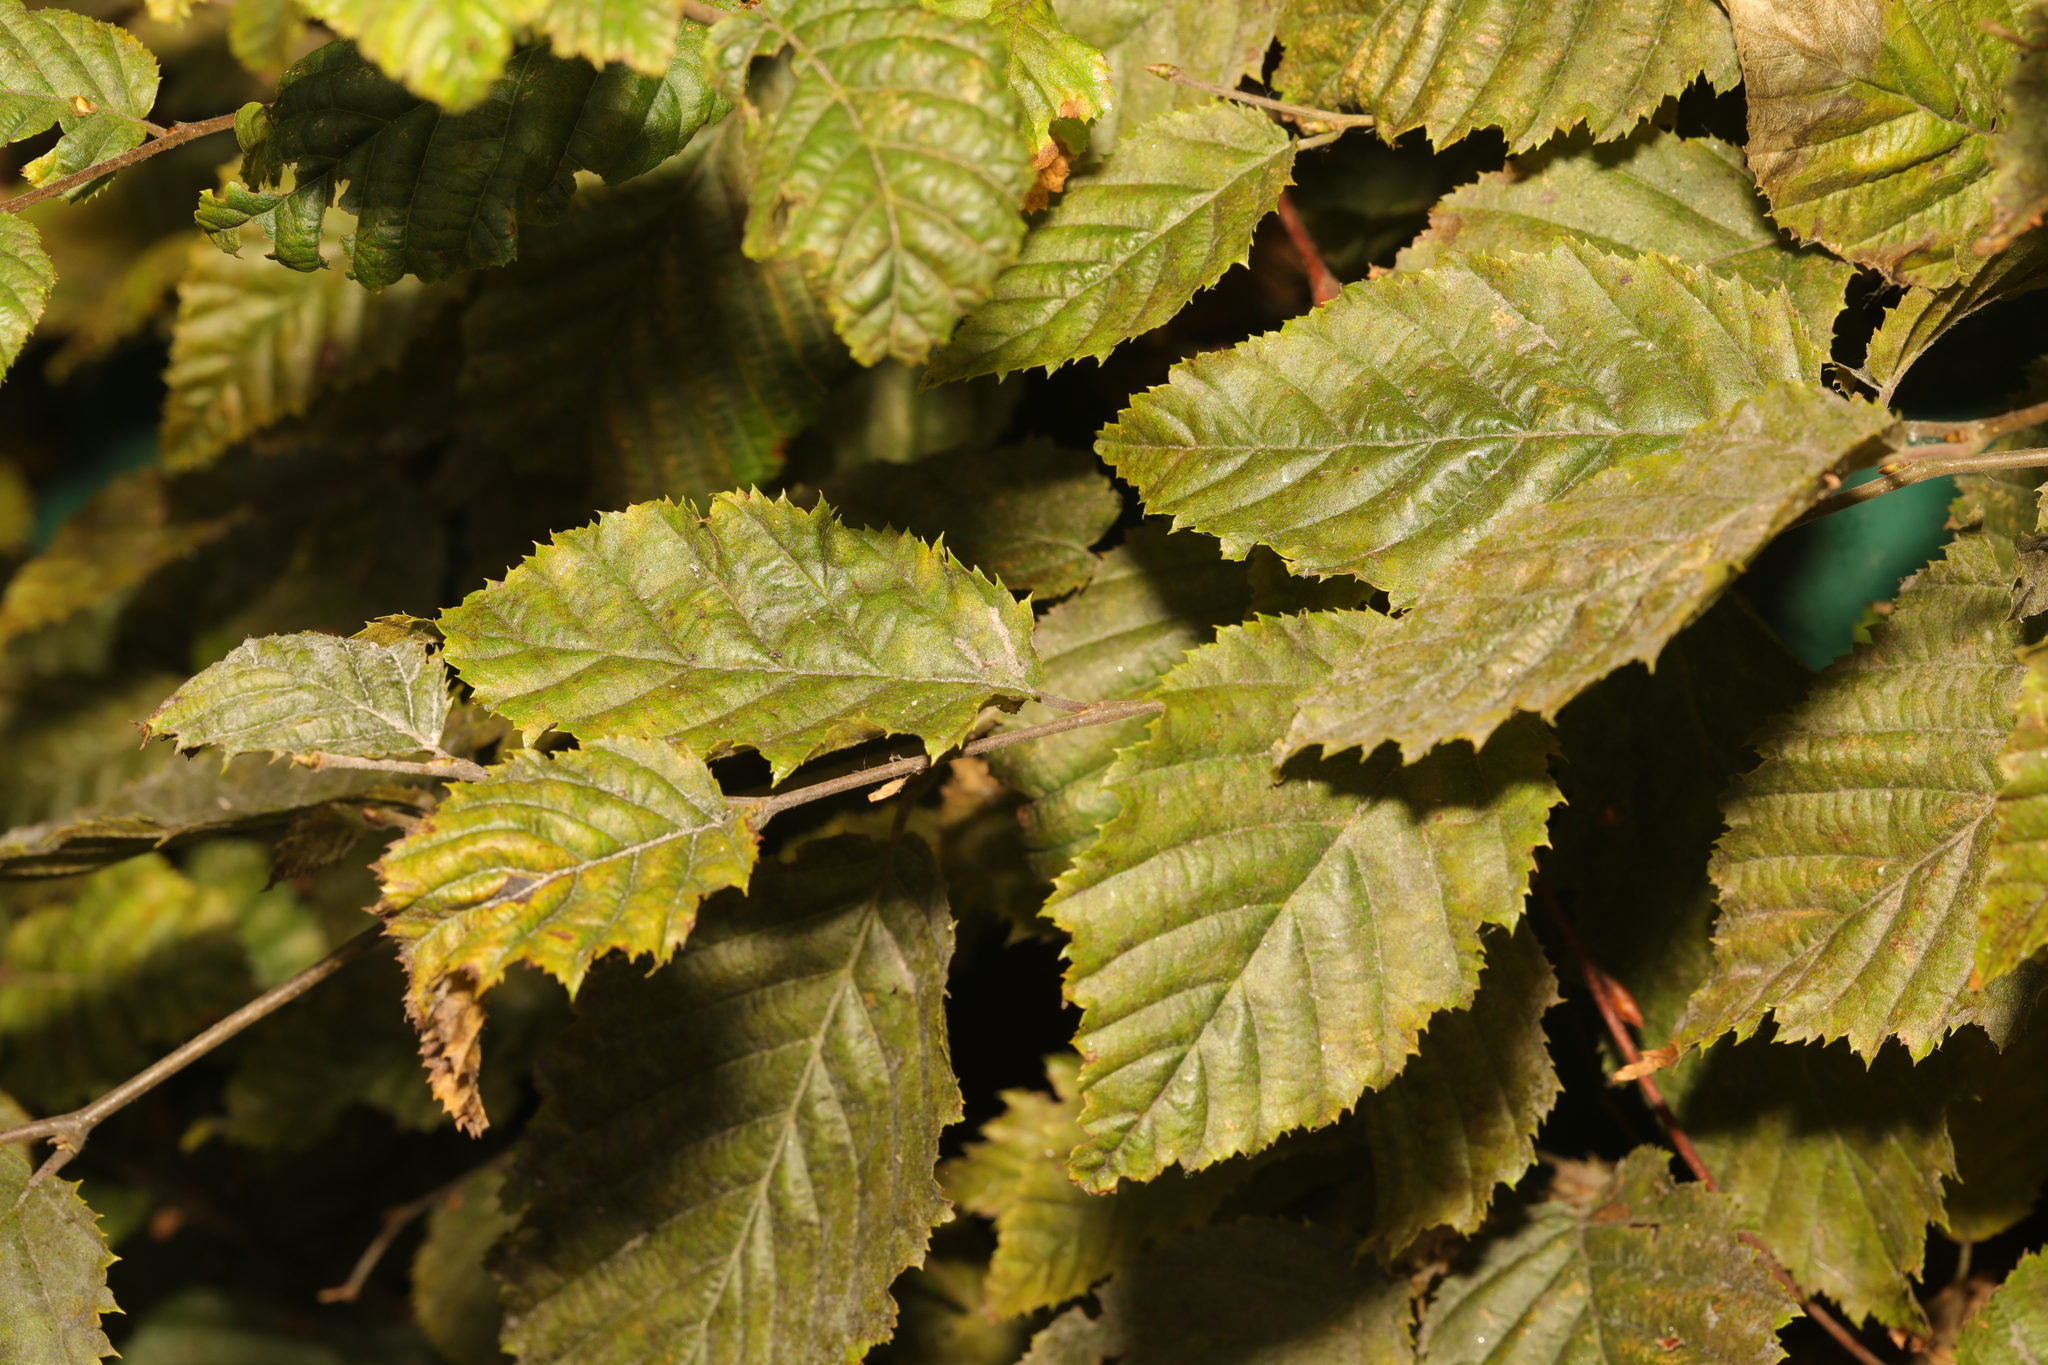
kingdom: Plantae
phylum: Tracheophyta
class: Magnoliopsida
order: Fagales
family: Betulaceae
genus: Carpinus
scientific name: Carpinus betulus
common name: Hornbeam
